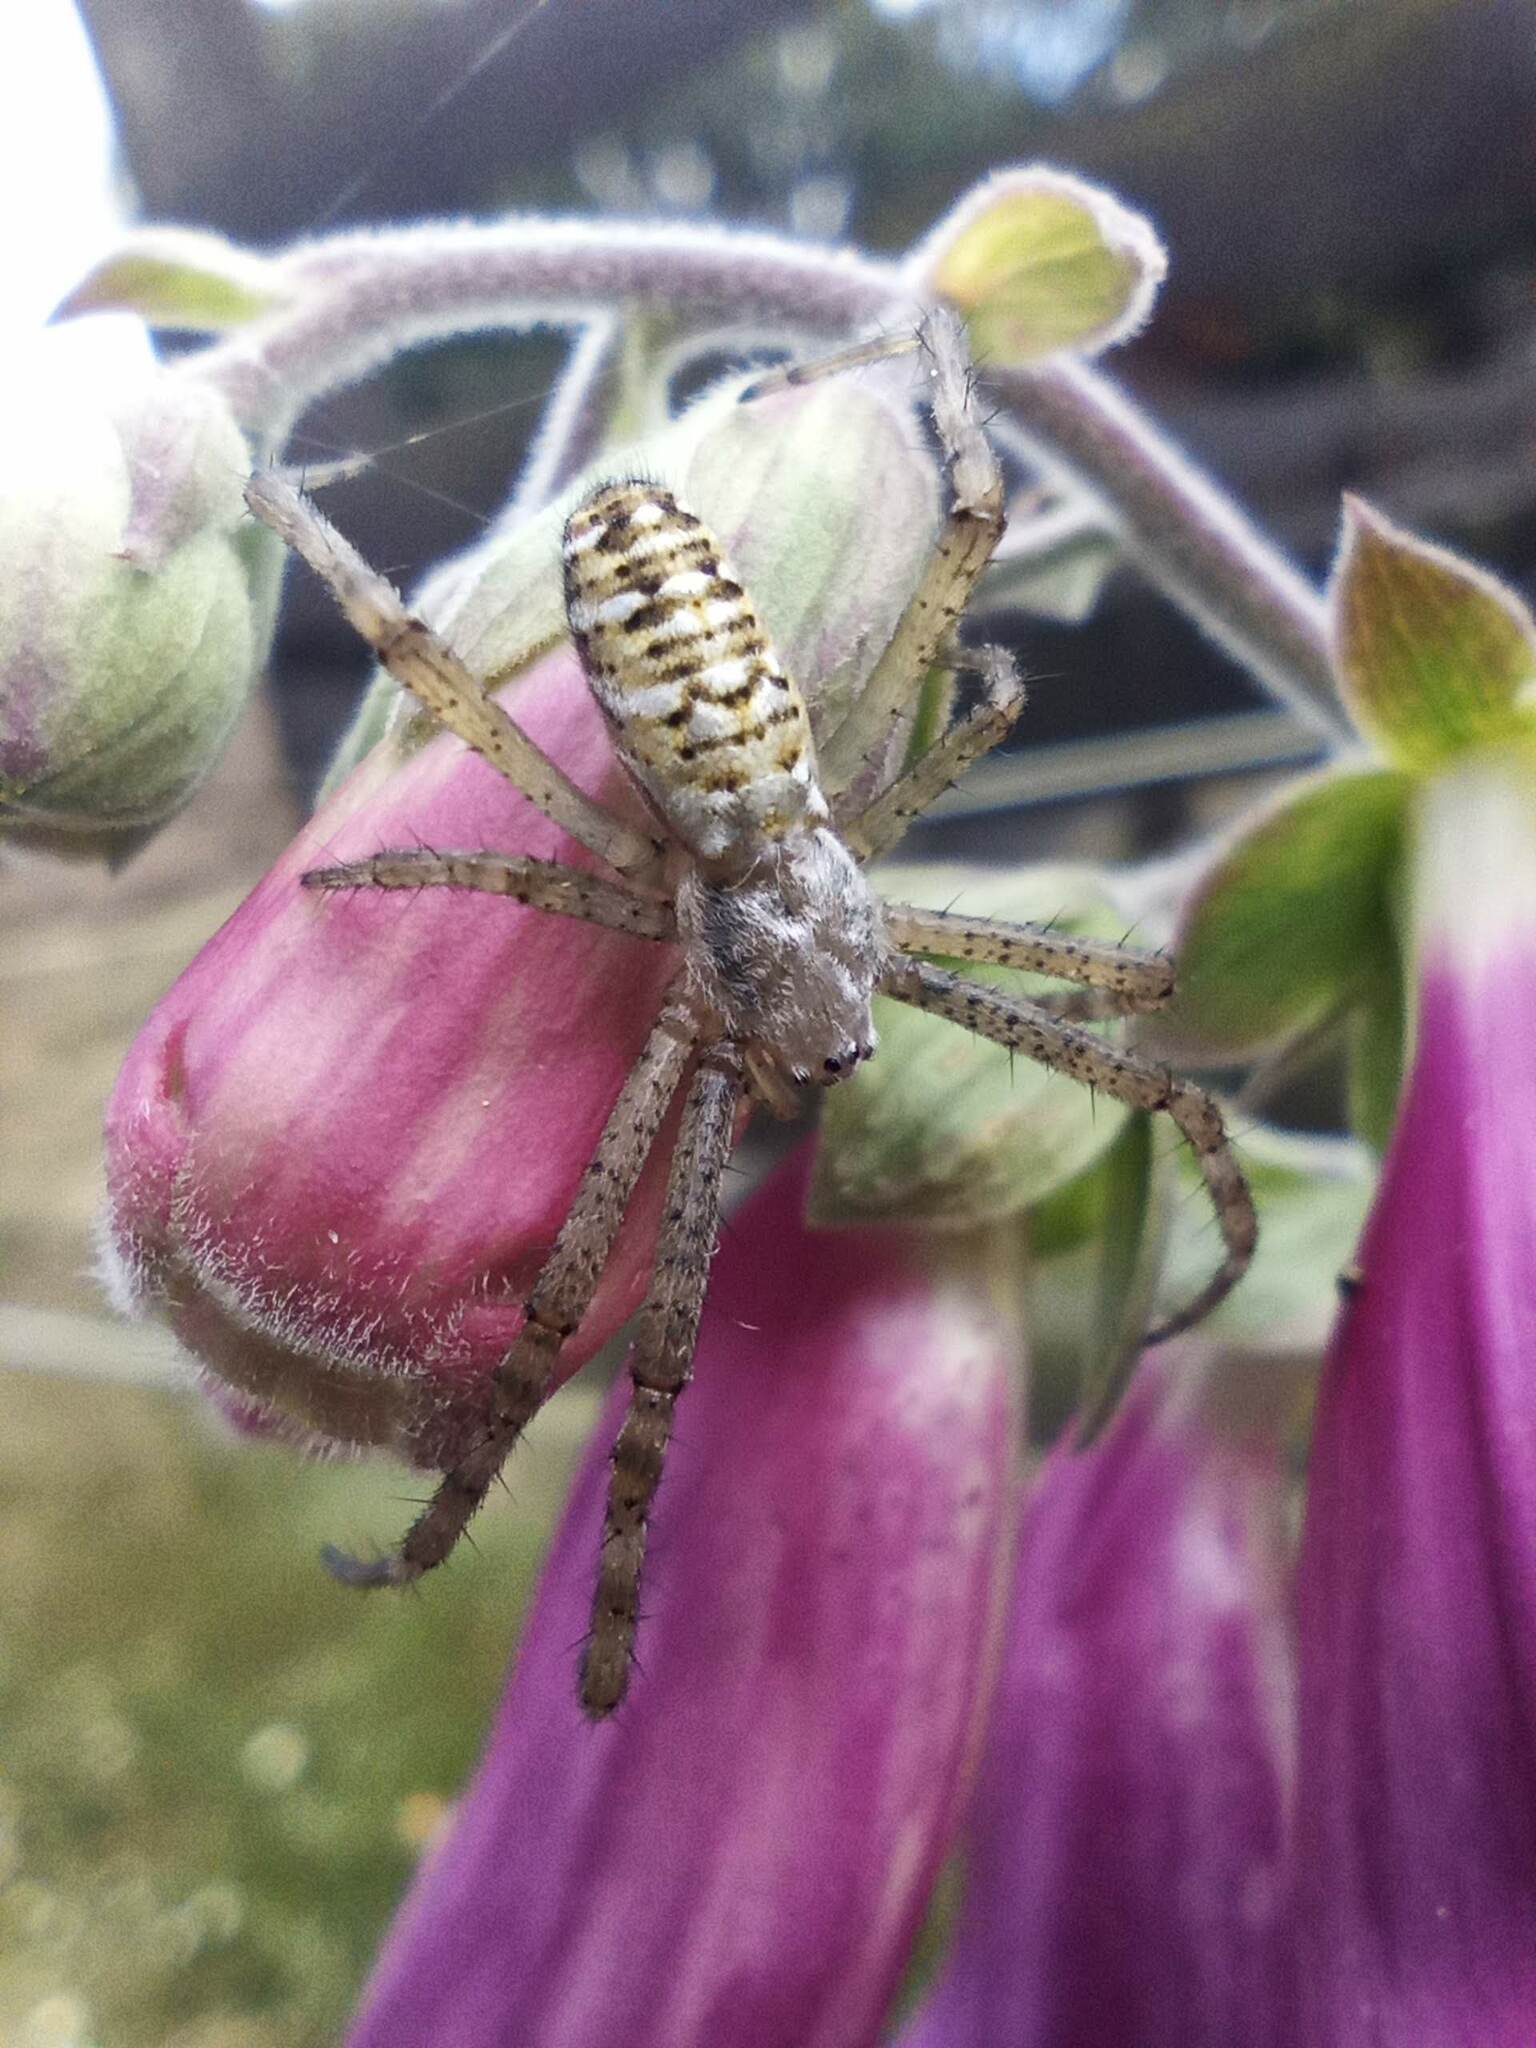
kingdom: Animalia
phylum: Arthropoda
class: Arachnida
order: Araneae
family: Araneidae
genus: Argiope
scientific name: Argiope bruennichi
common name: Wasp spider
